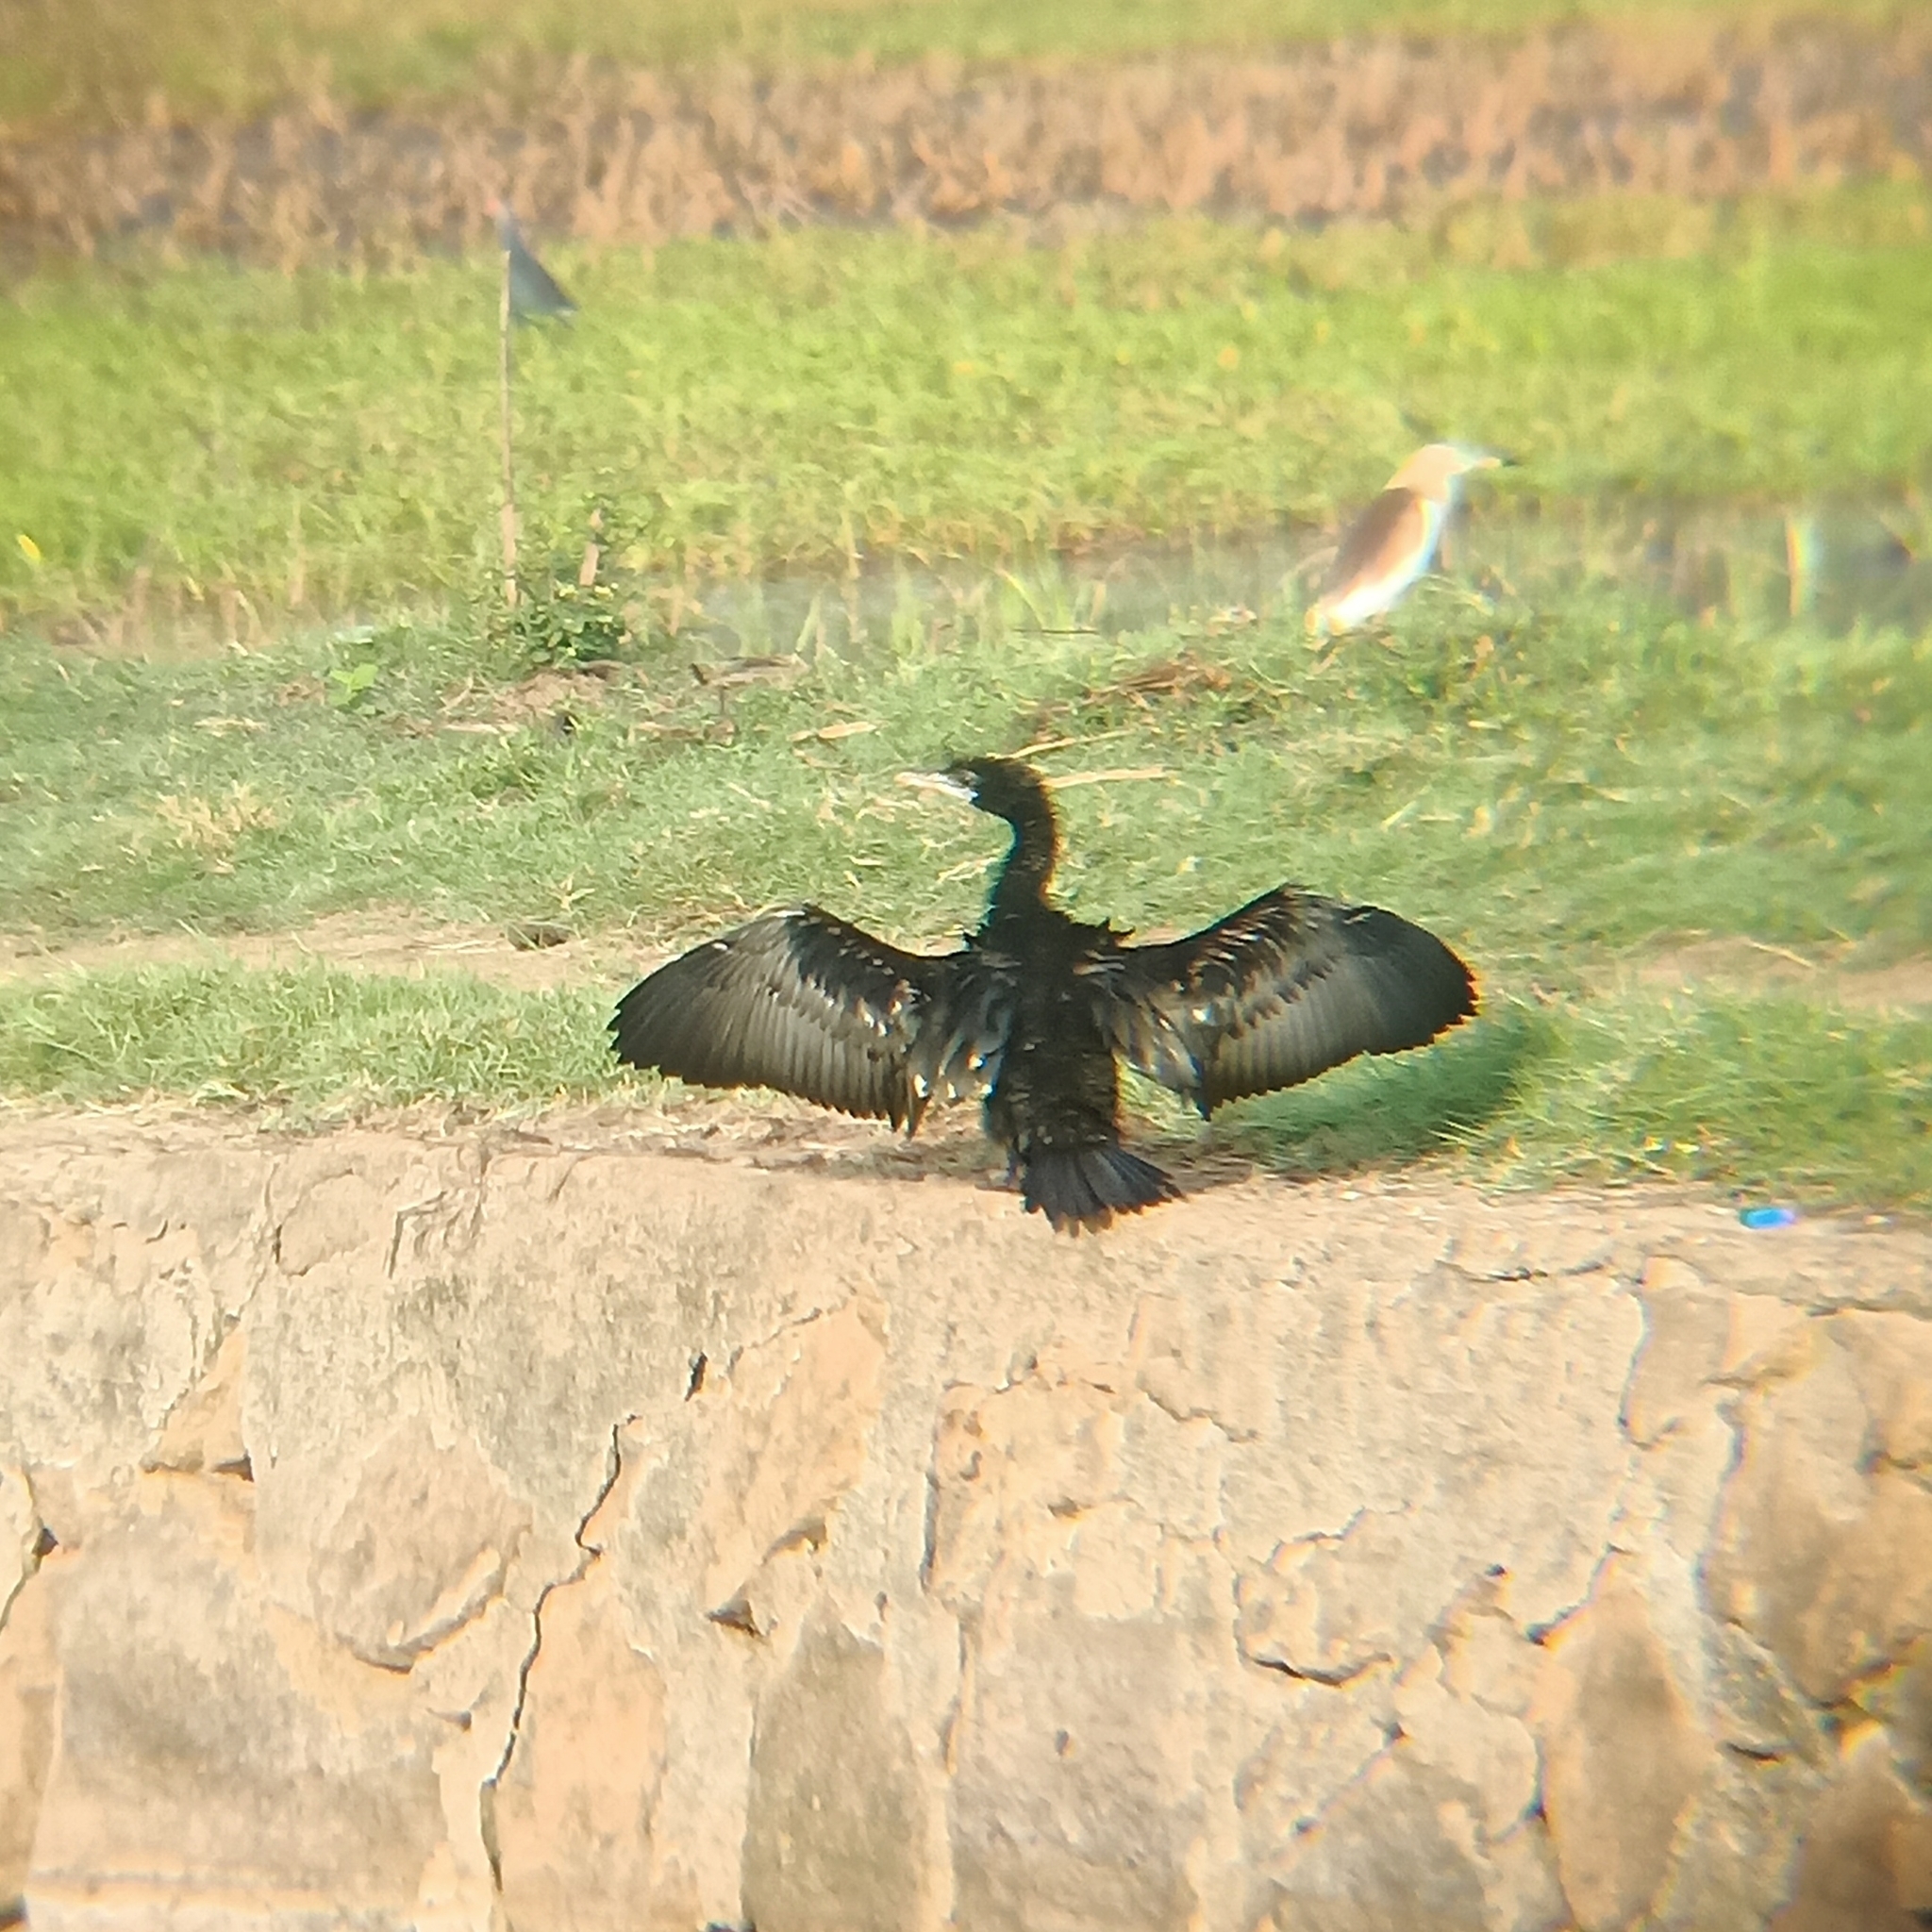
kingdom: Animalia
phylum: Chordata
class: Aves
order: Suliformes
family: Phalacrocoracidae
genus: Microcarbo
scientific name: Microcarbo niger
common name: Little cormorant
